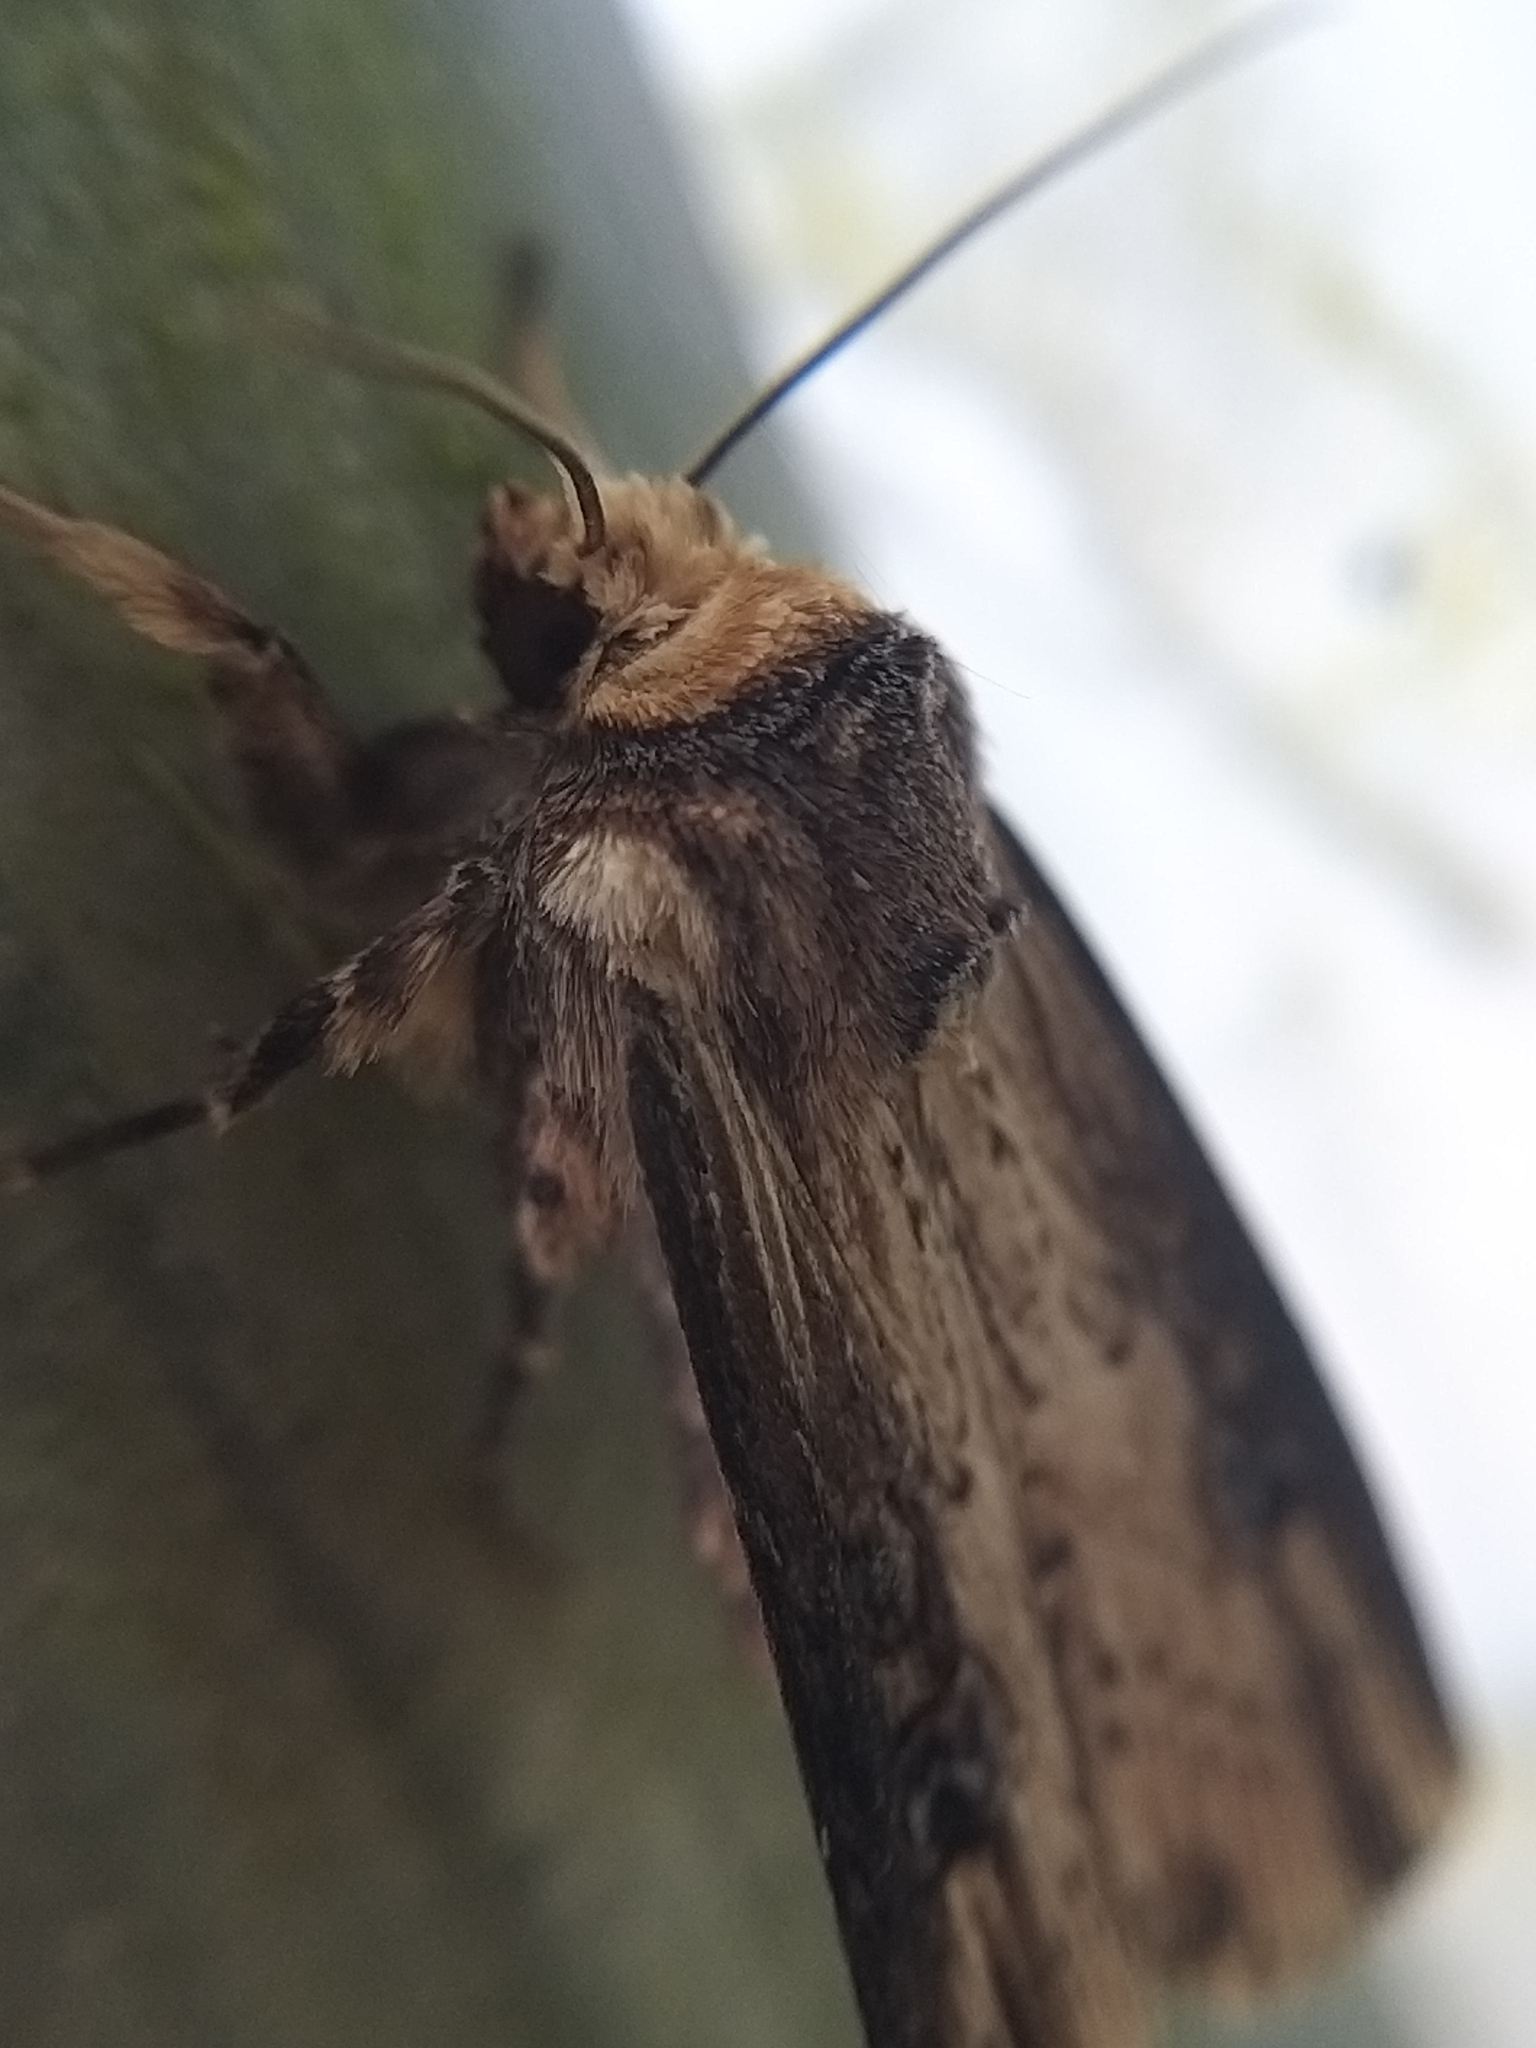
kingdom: Animalia
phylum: Arthropoda
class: Insecta
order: Lepidoptera
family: Noctuidae
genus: Axylia
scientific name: Axylia putris
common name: Flame
